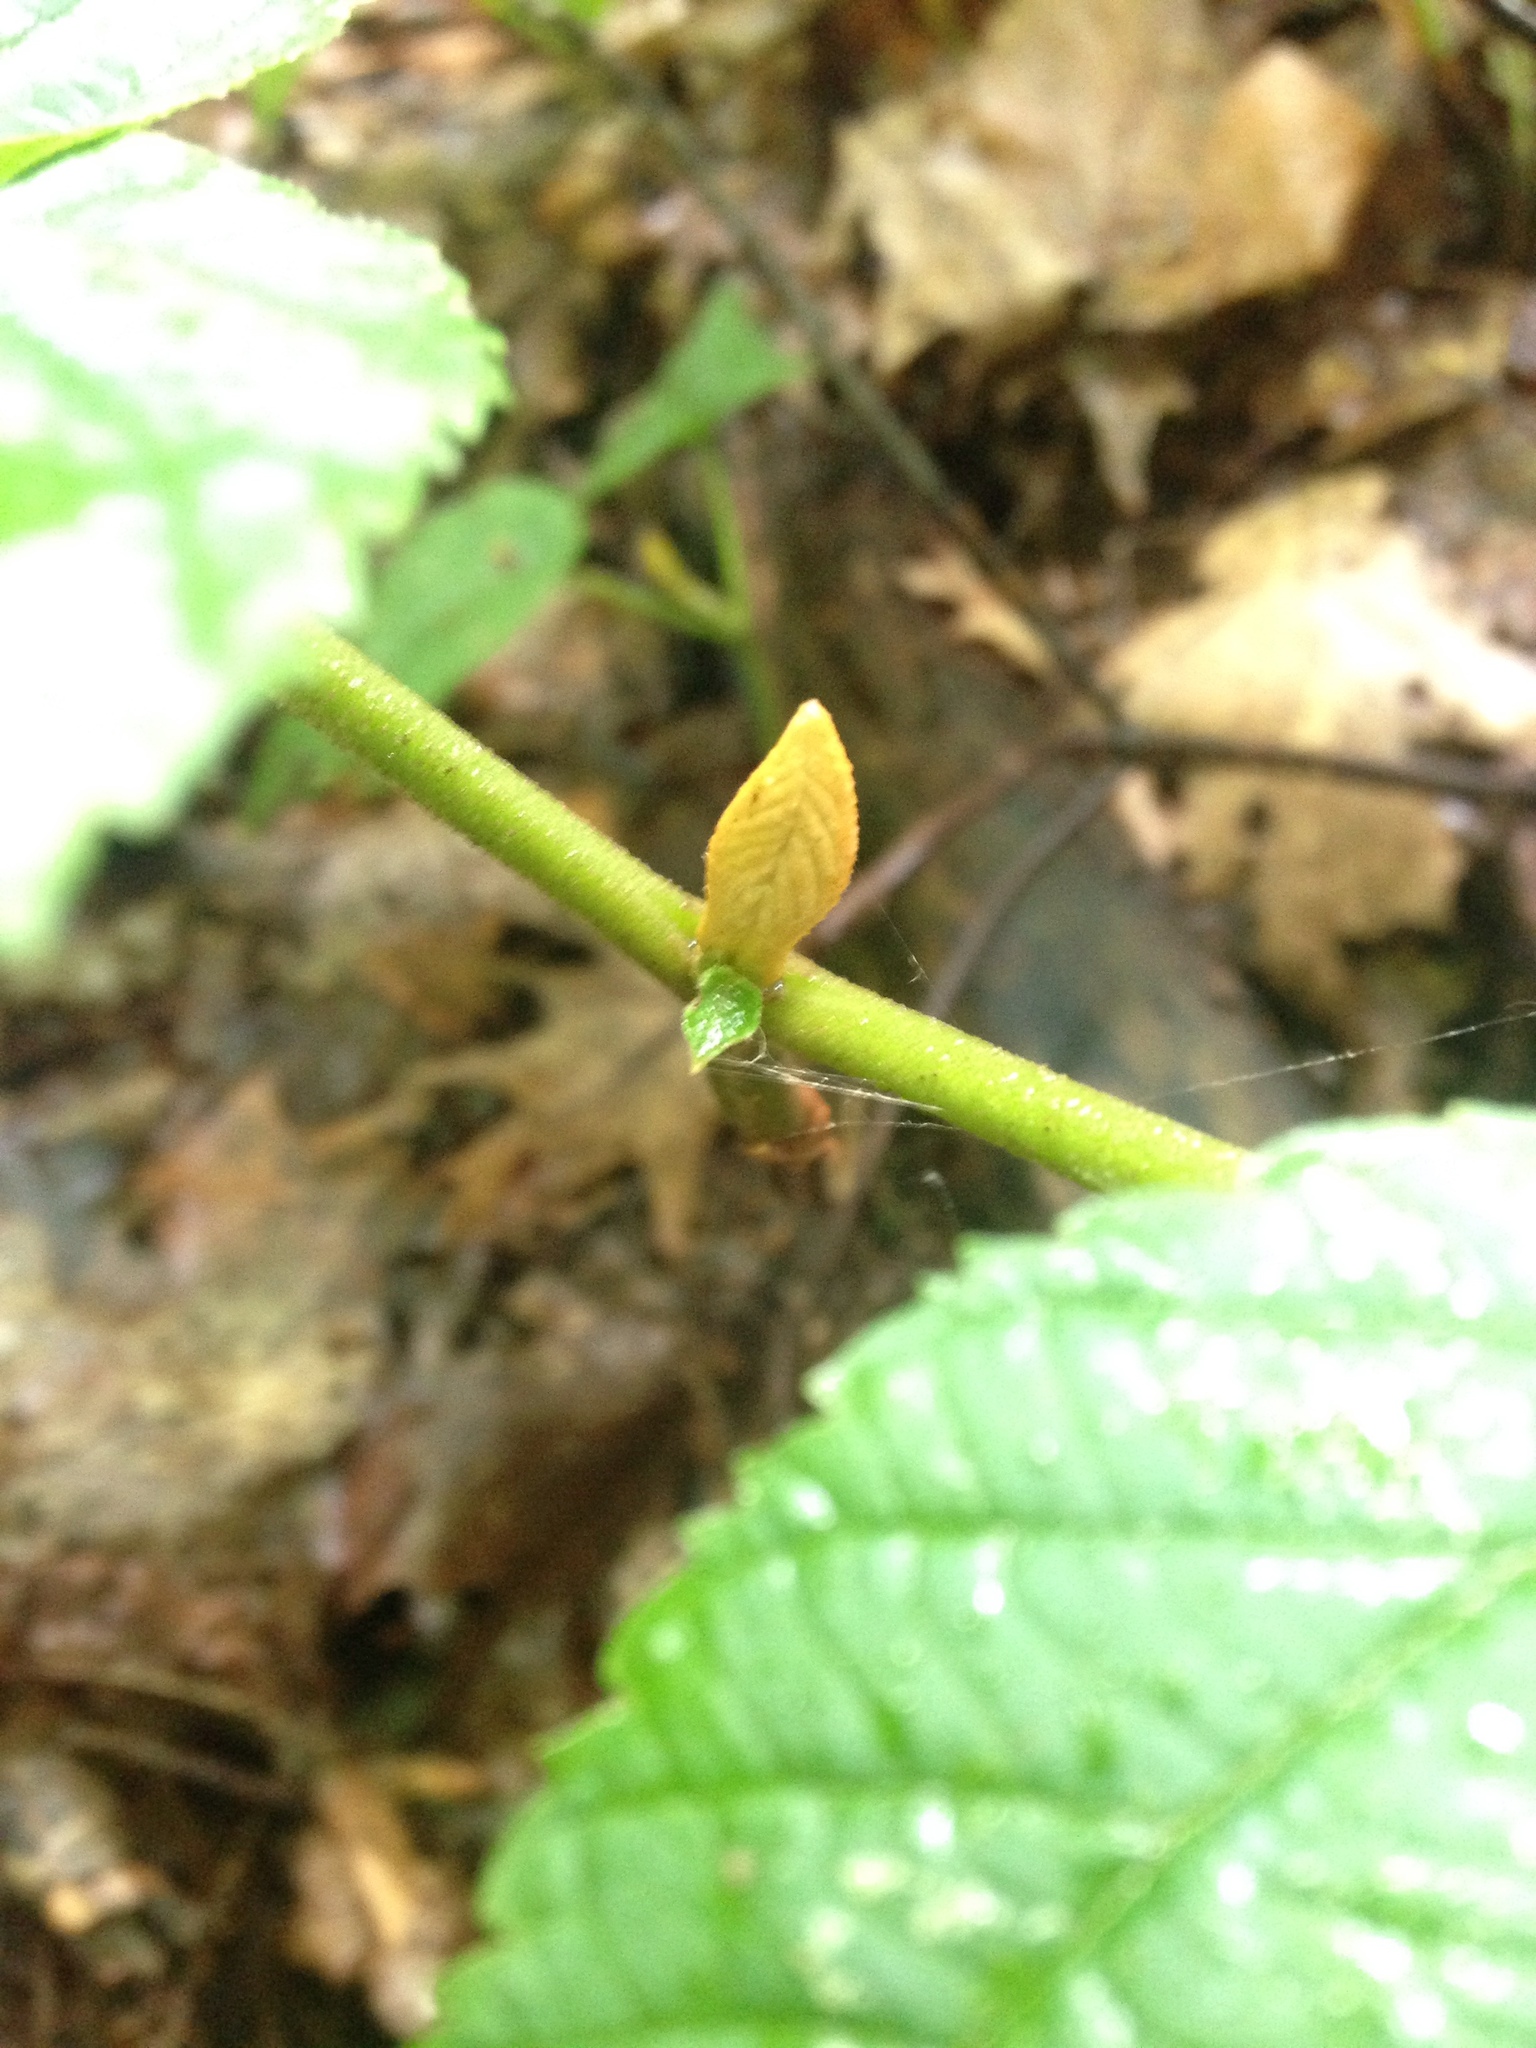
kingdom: Plantae
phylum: Tracheophyta
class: Magnoliopsida
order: Dipsacales
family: Viburnaceae
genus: Viburnum
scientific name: Viburnum lantanoides
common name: Hobblebush
